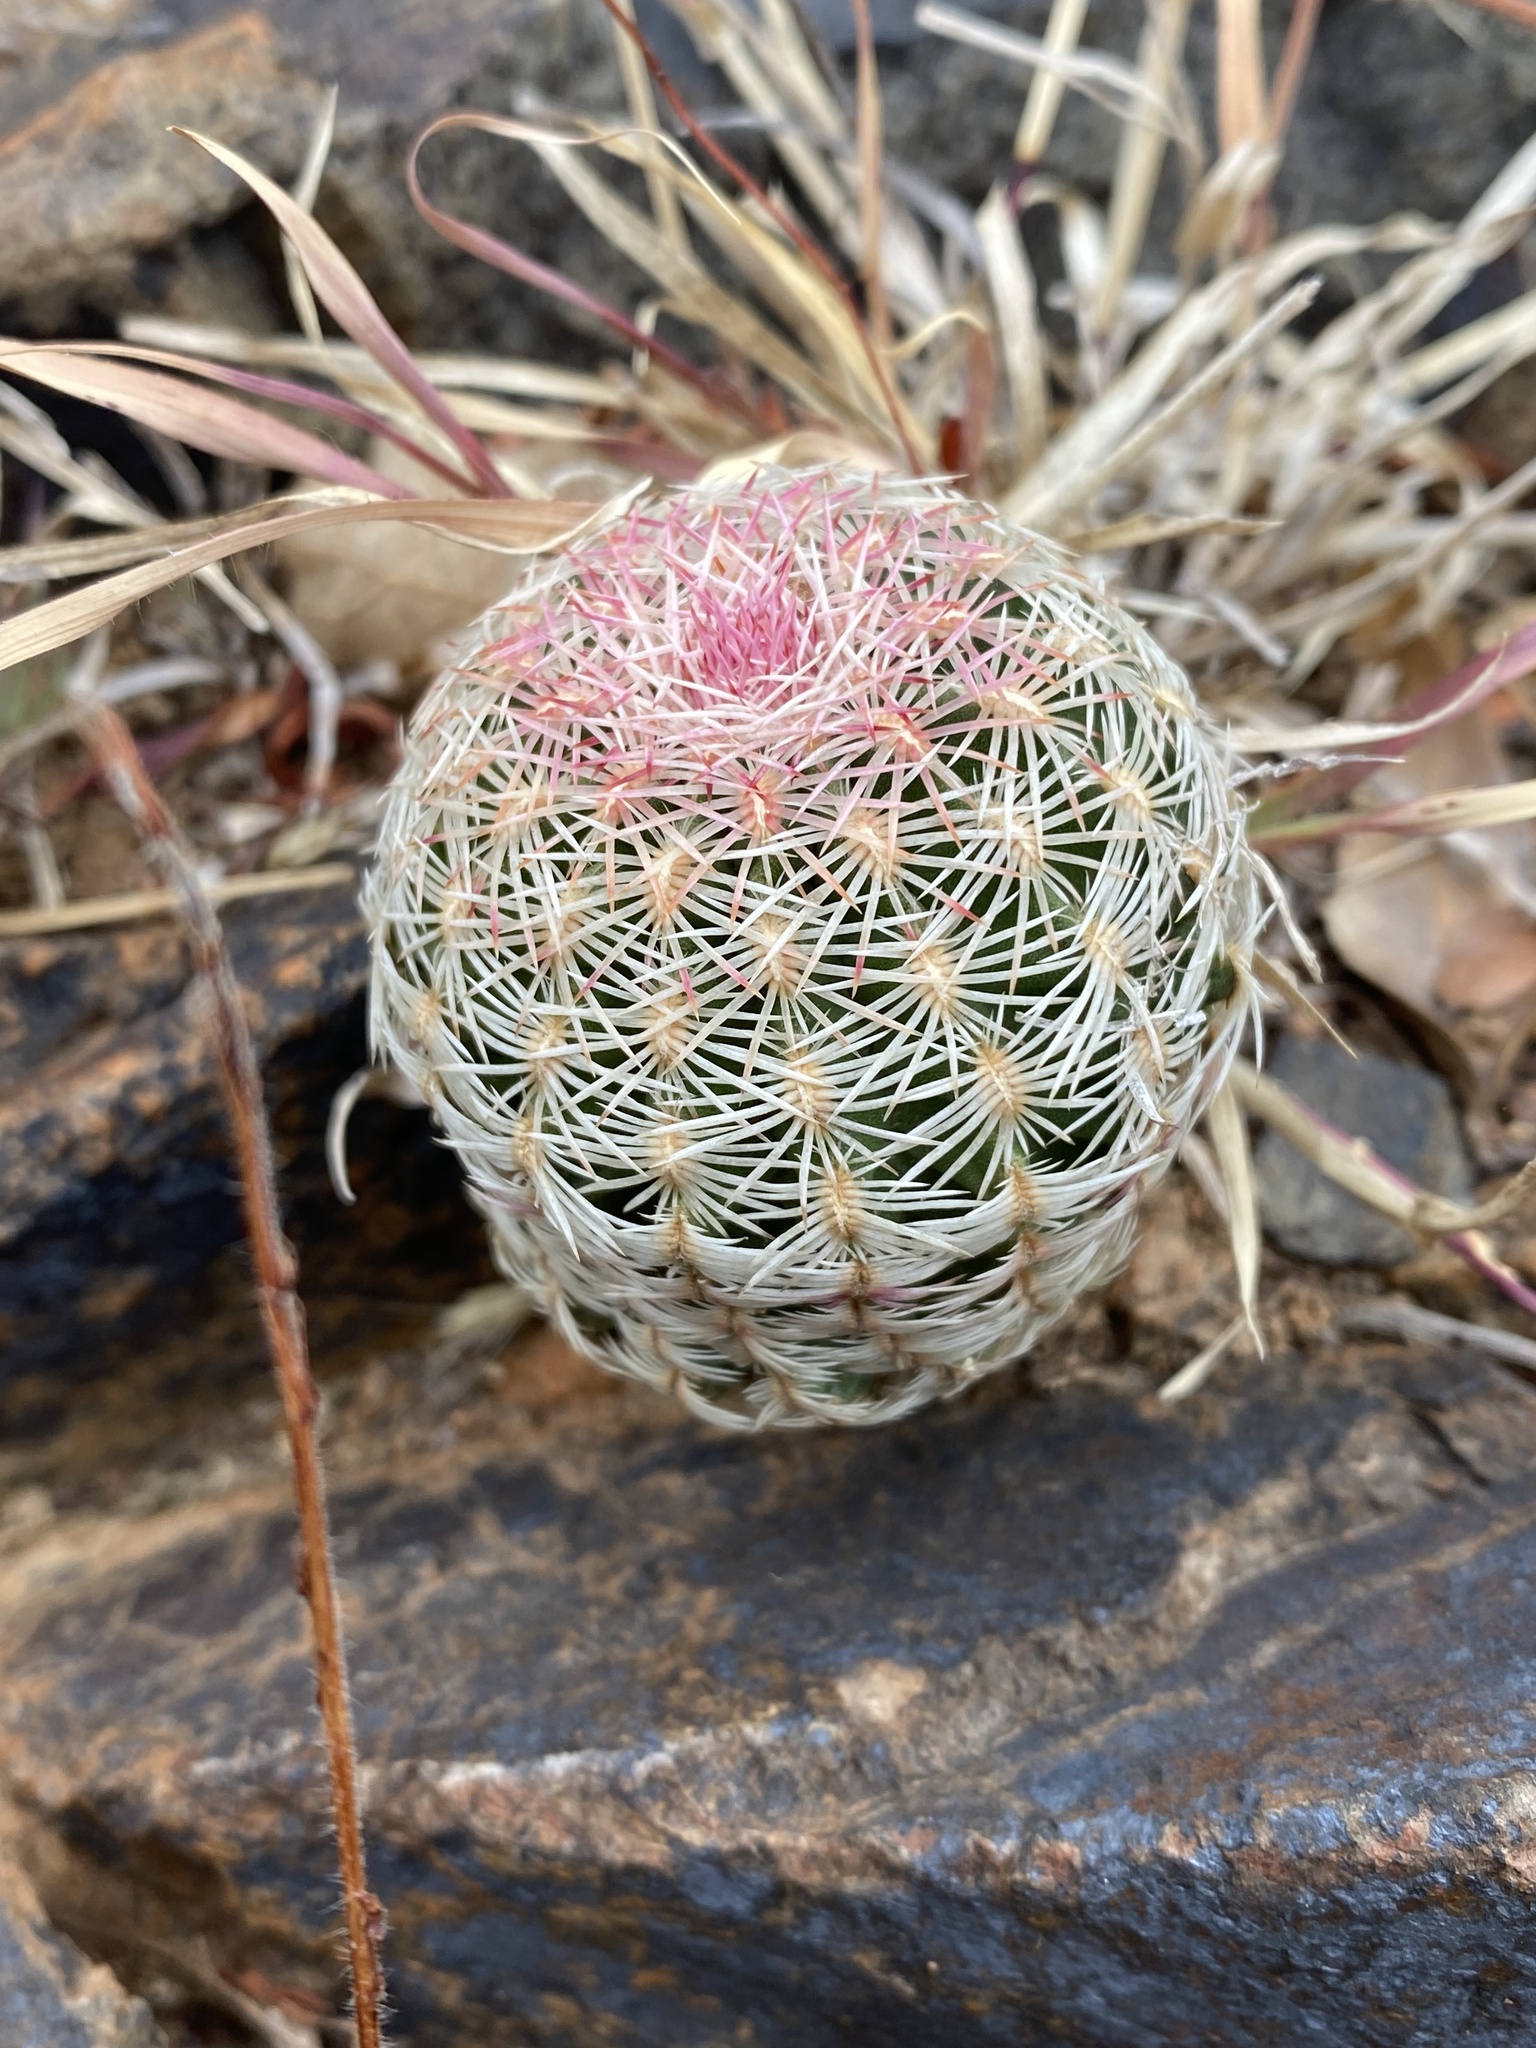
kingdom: Plantae
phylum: Tracheophyta
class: Magnoliopsida
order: Caryophyllales
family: Cactaceae
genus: Echinocereus
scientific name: Echinocereus rigidissimus
